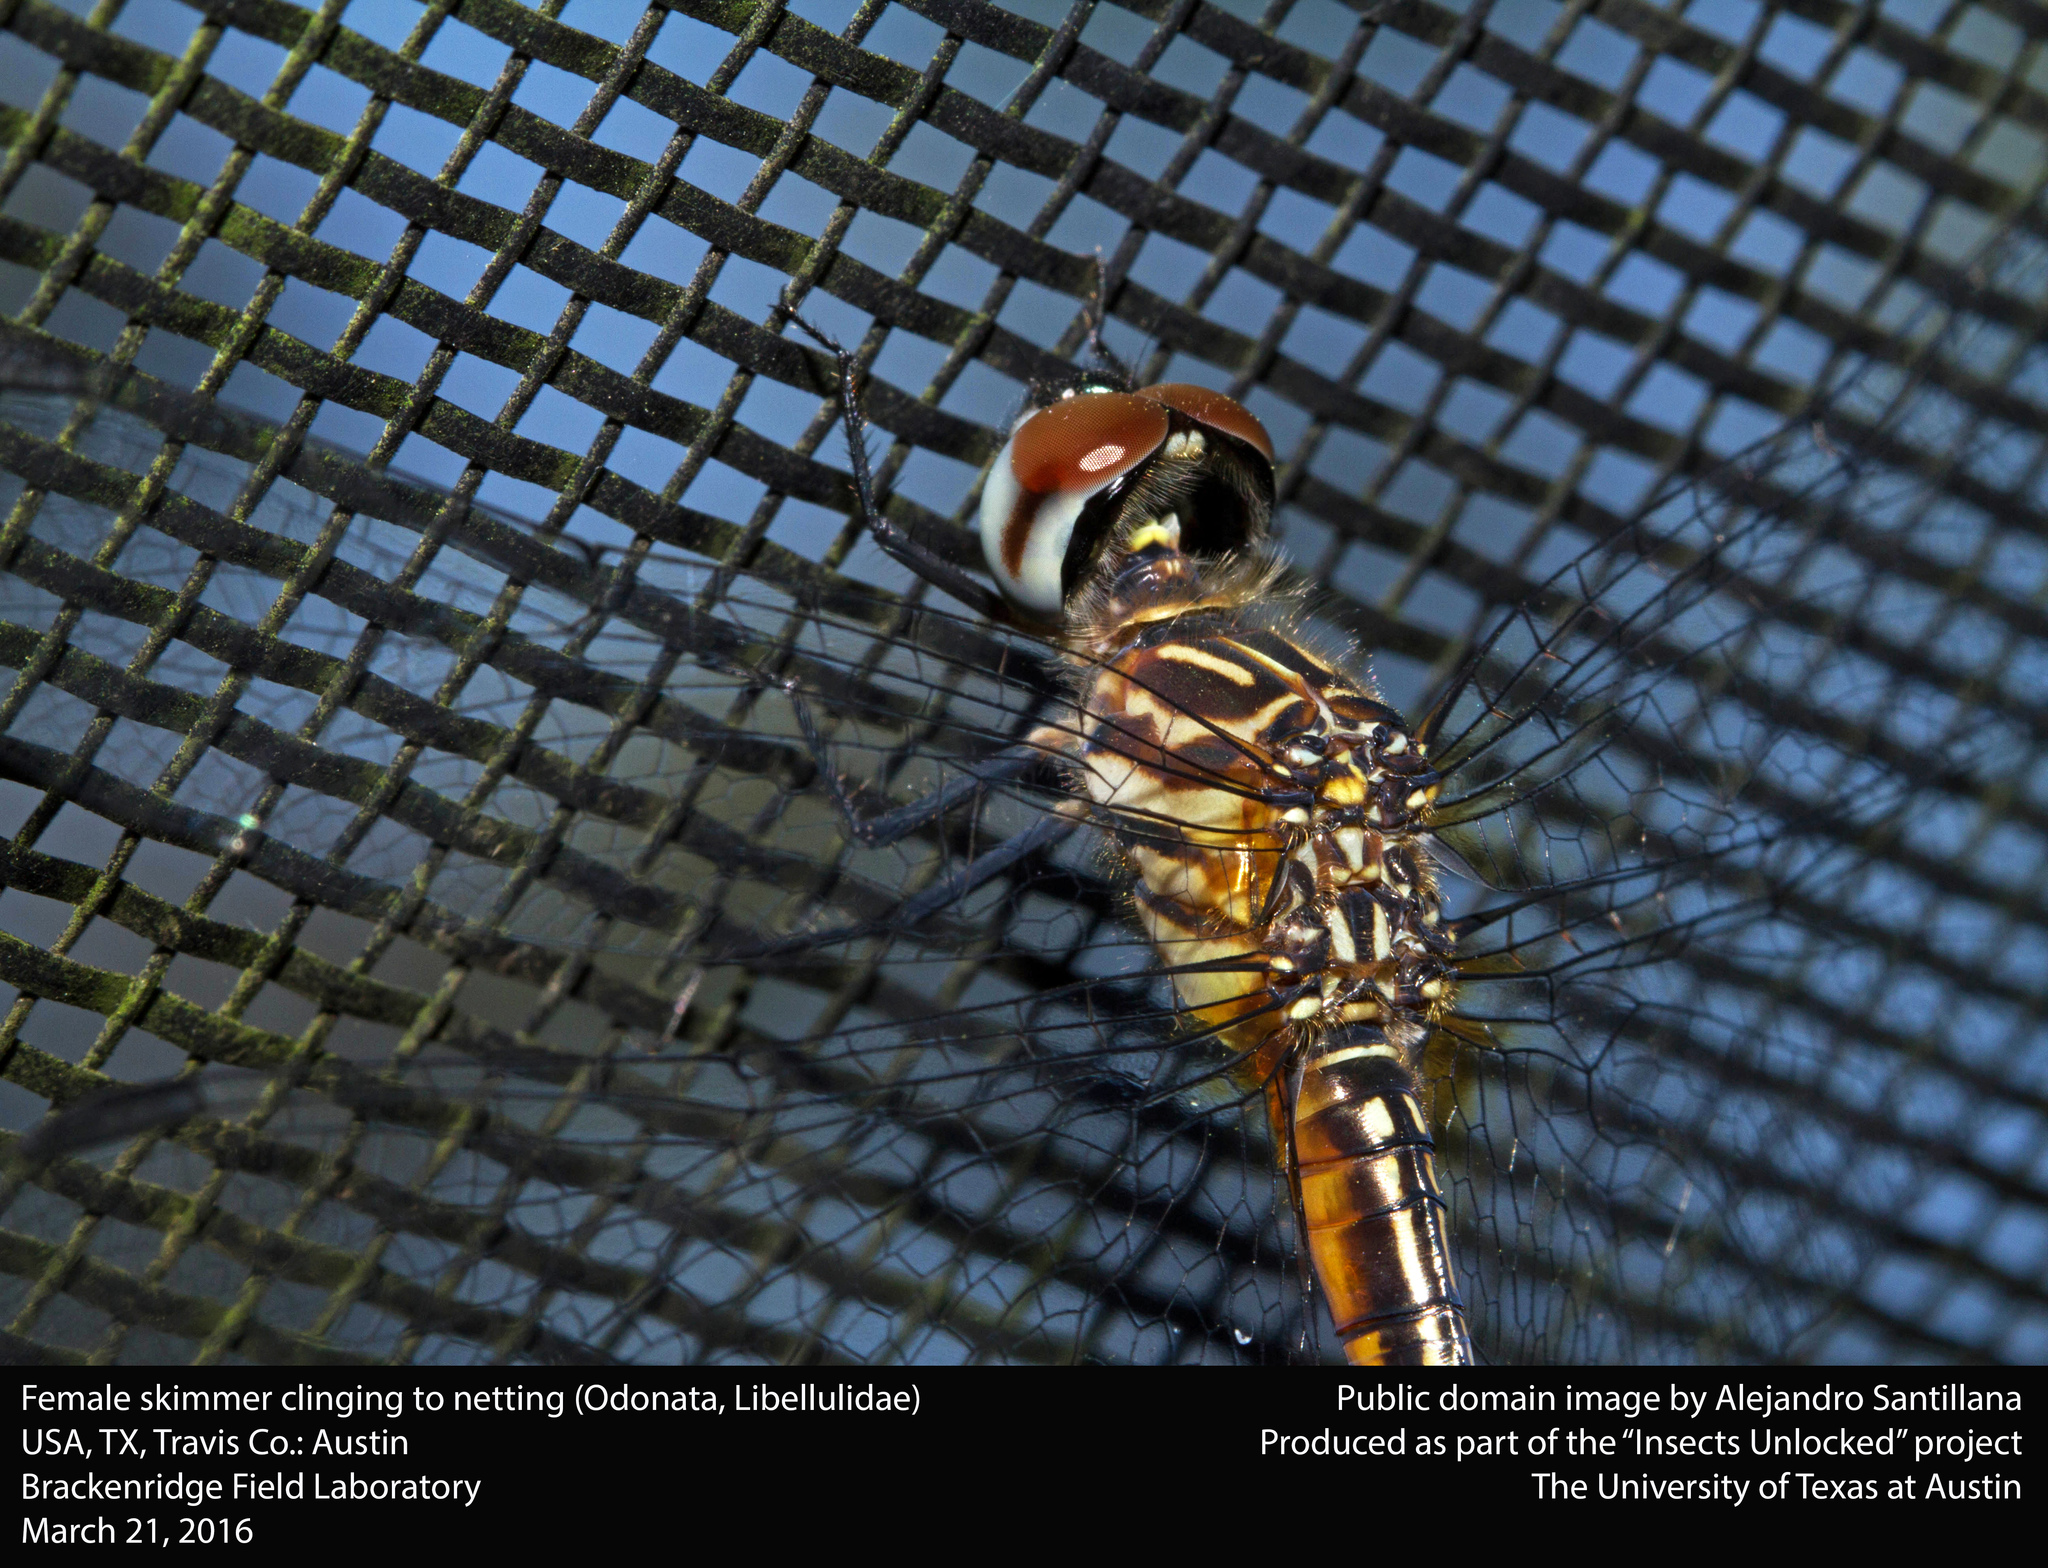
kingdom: Animalia
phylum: Arthropoda
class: Insecta
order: Odonata
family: Libellulidae
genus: Pachydiplax
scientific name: Pachydiplax longipennis
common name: Blue dasher
